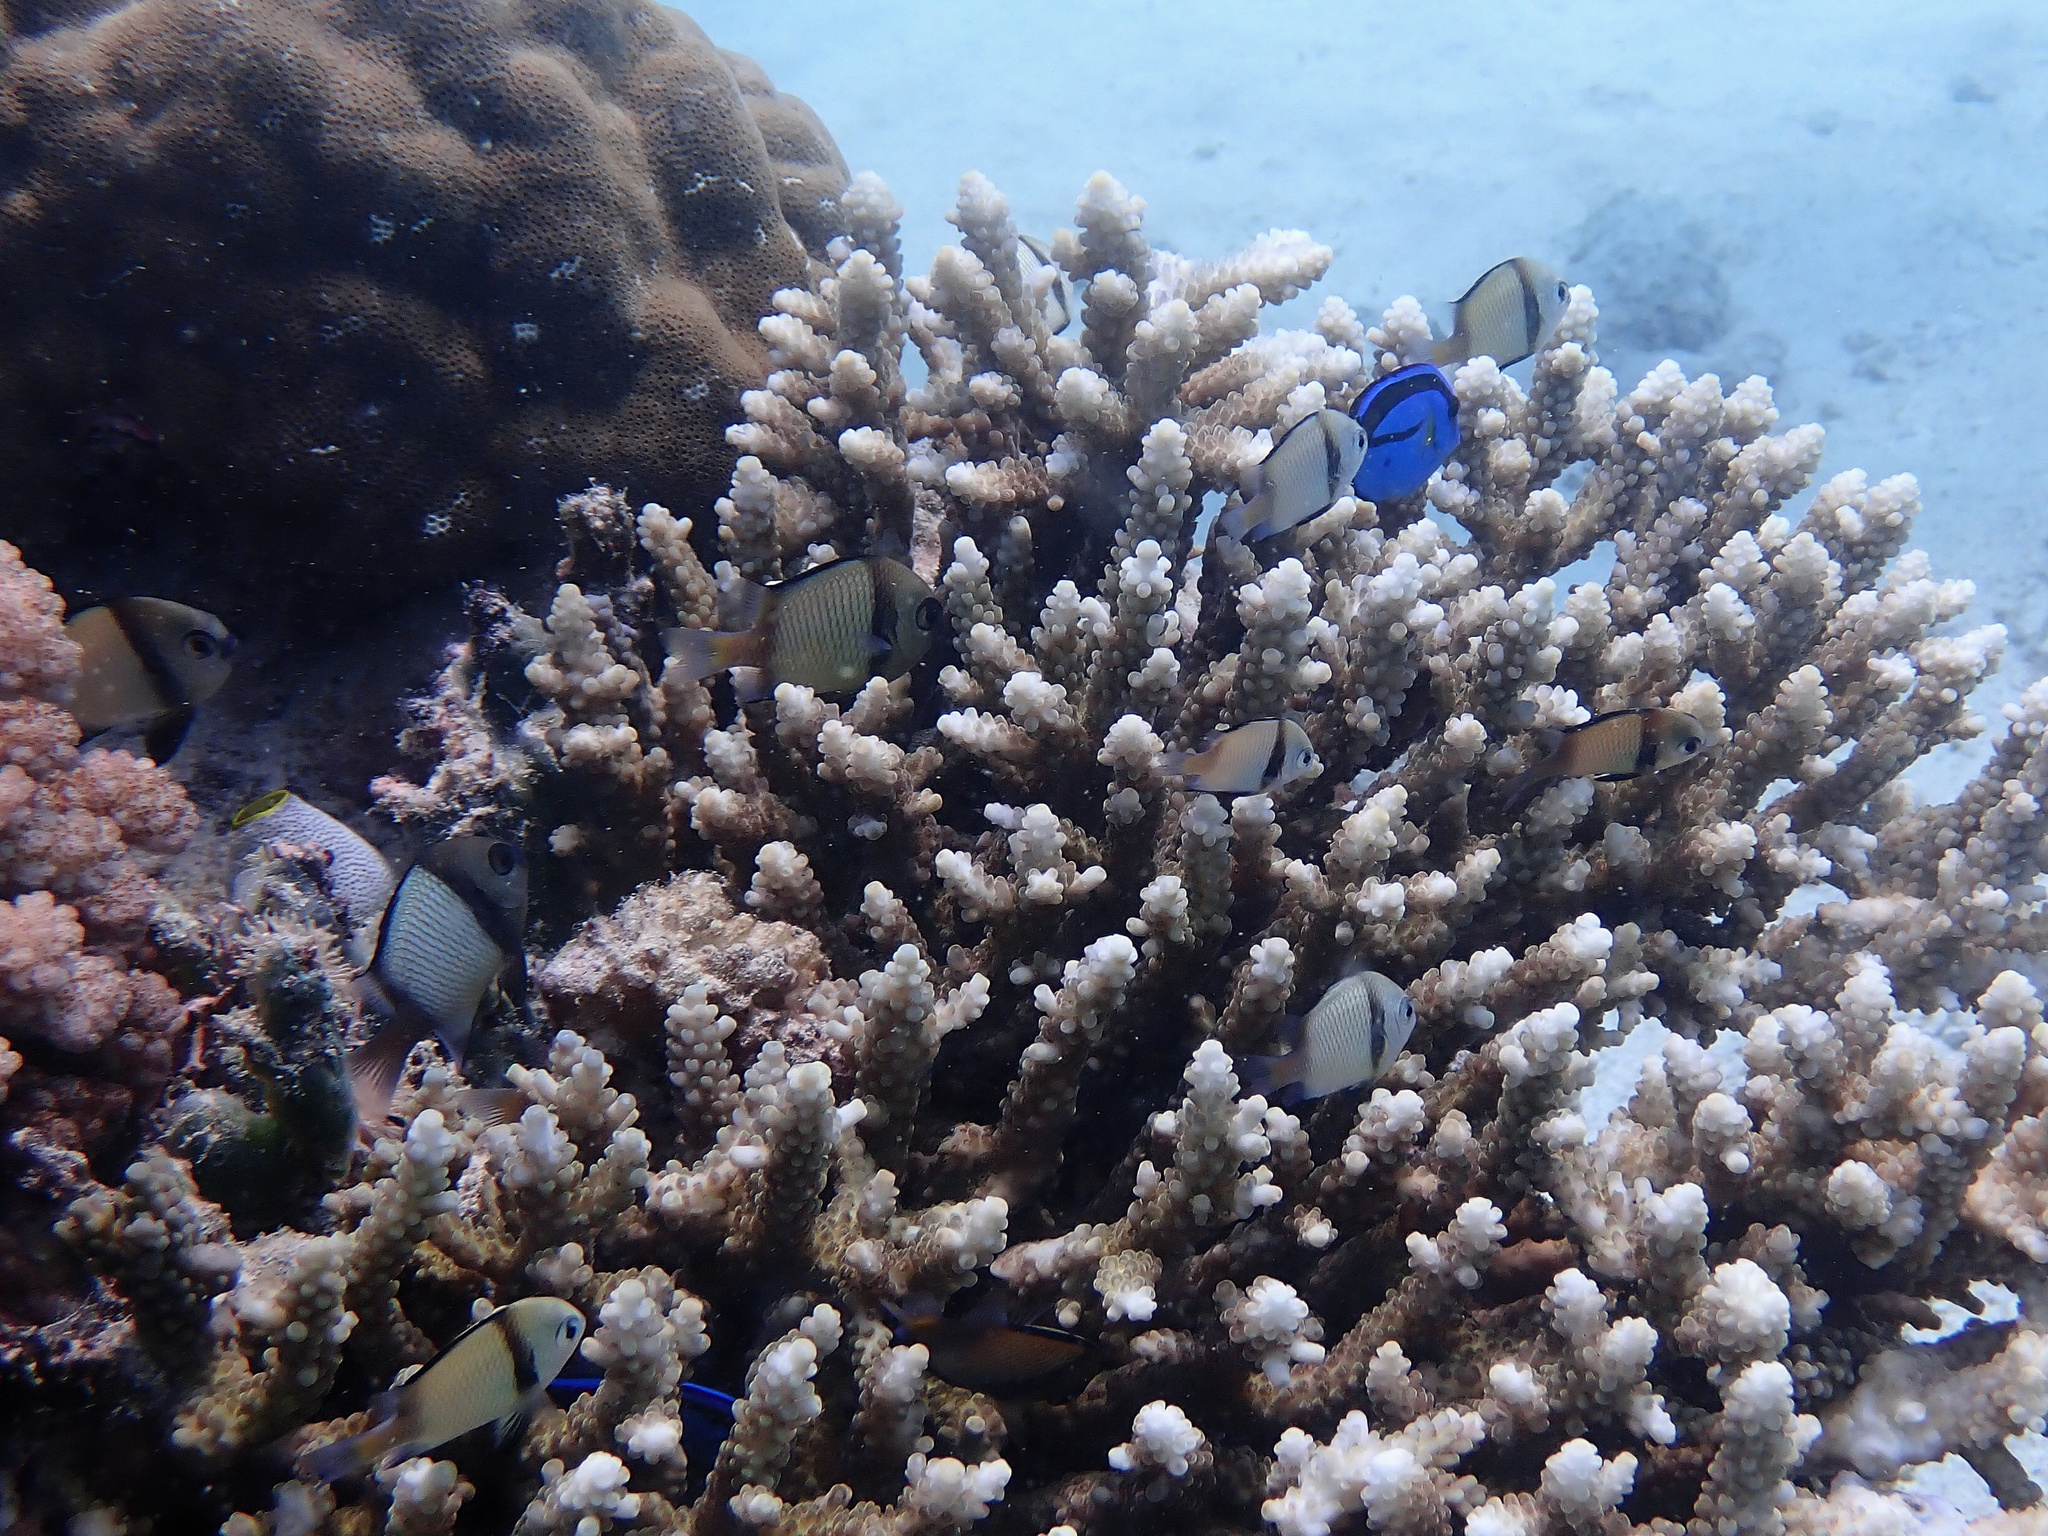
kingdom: Animalia
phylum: Chordata
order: Perciformes
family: Pomacentridae
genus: Dascyllus
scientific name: Dascyllus reticulatus
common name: Reticulated dascyllus
